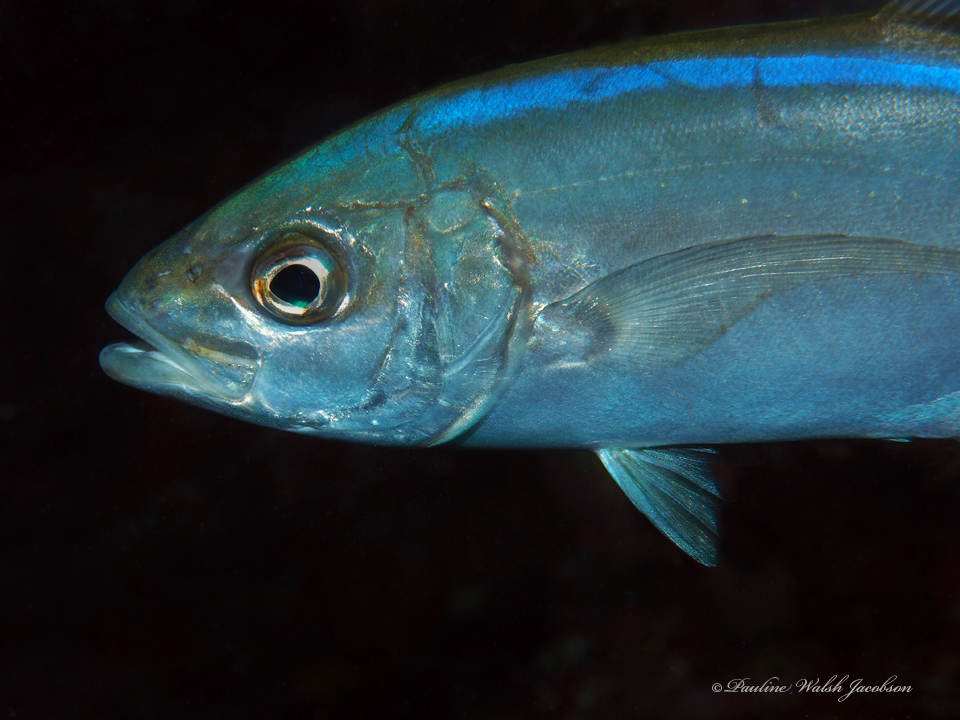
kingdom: Animalia
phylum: Chordata
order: Perciformes
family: Carangidae
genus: Caranx
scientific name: Caranx ruber
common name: Bar jack
